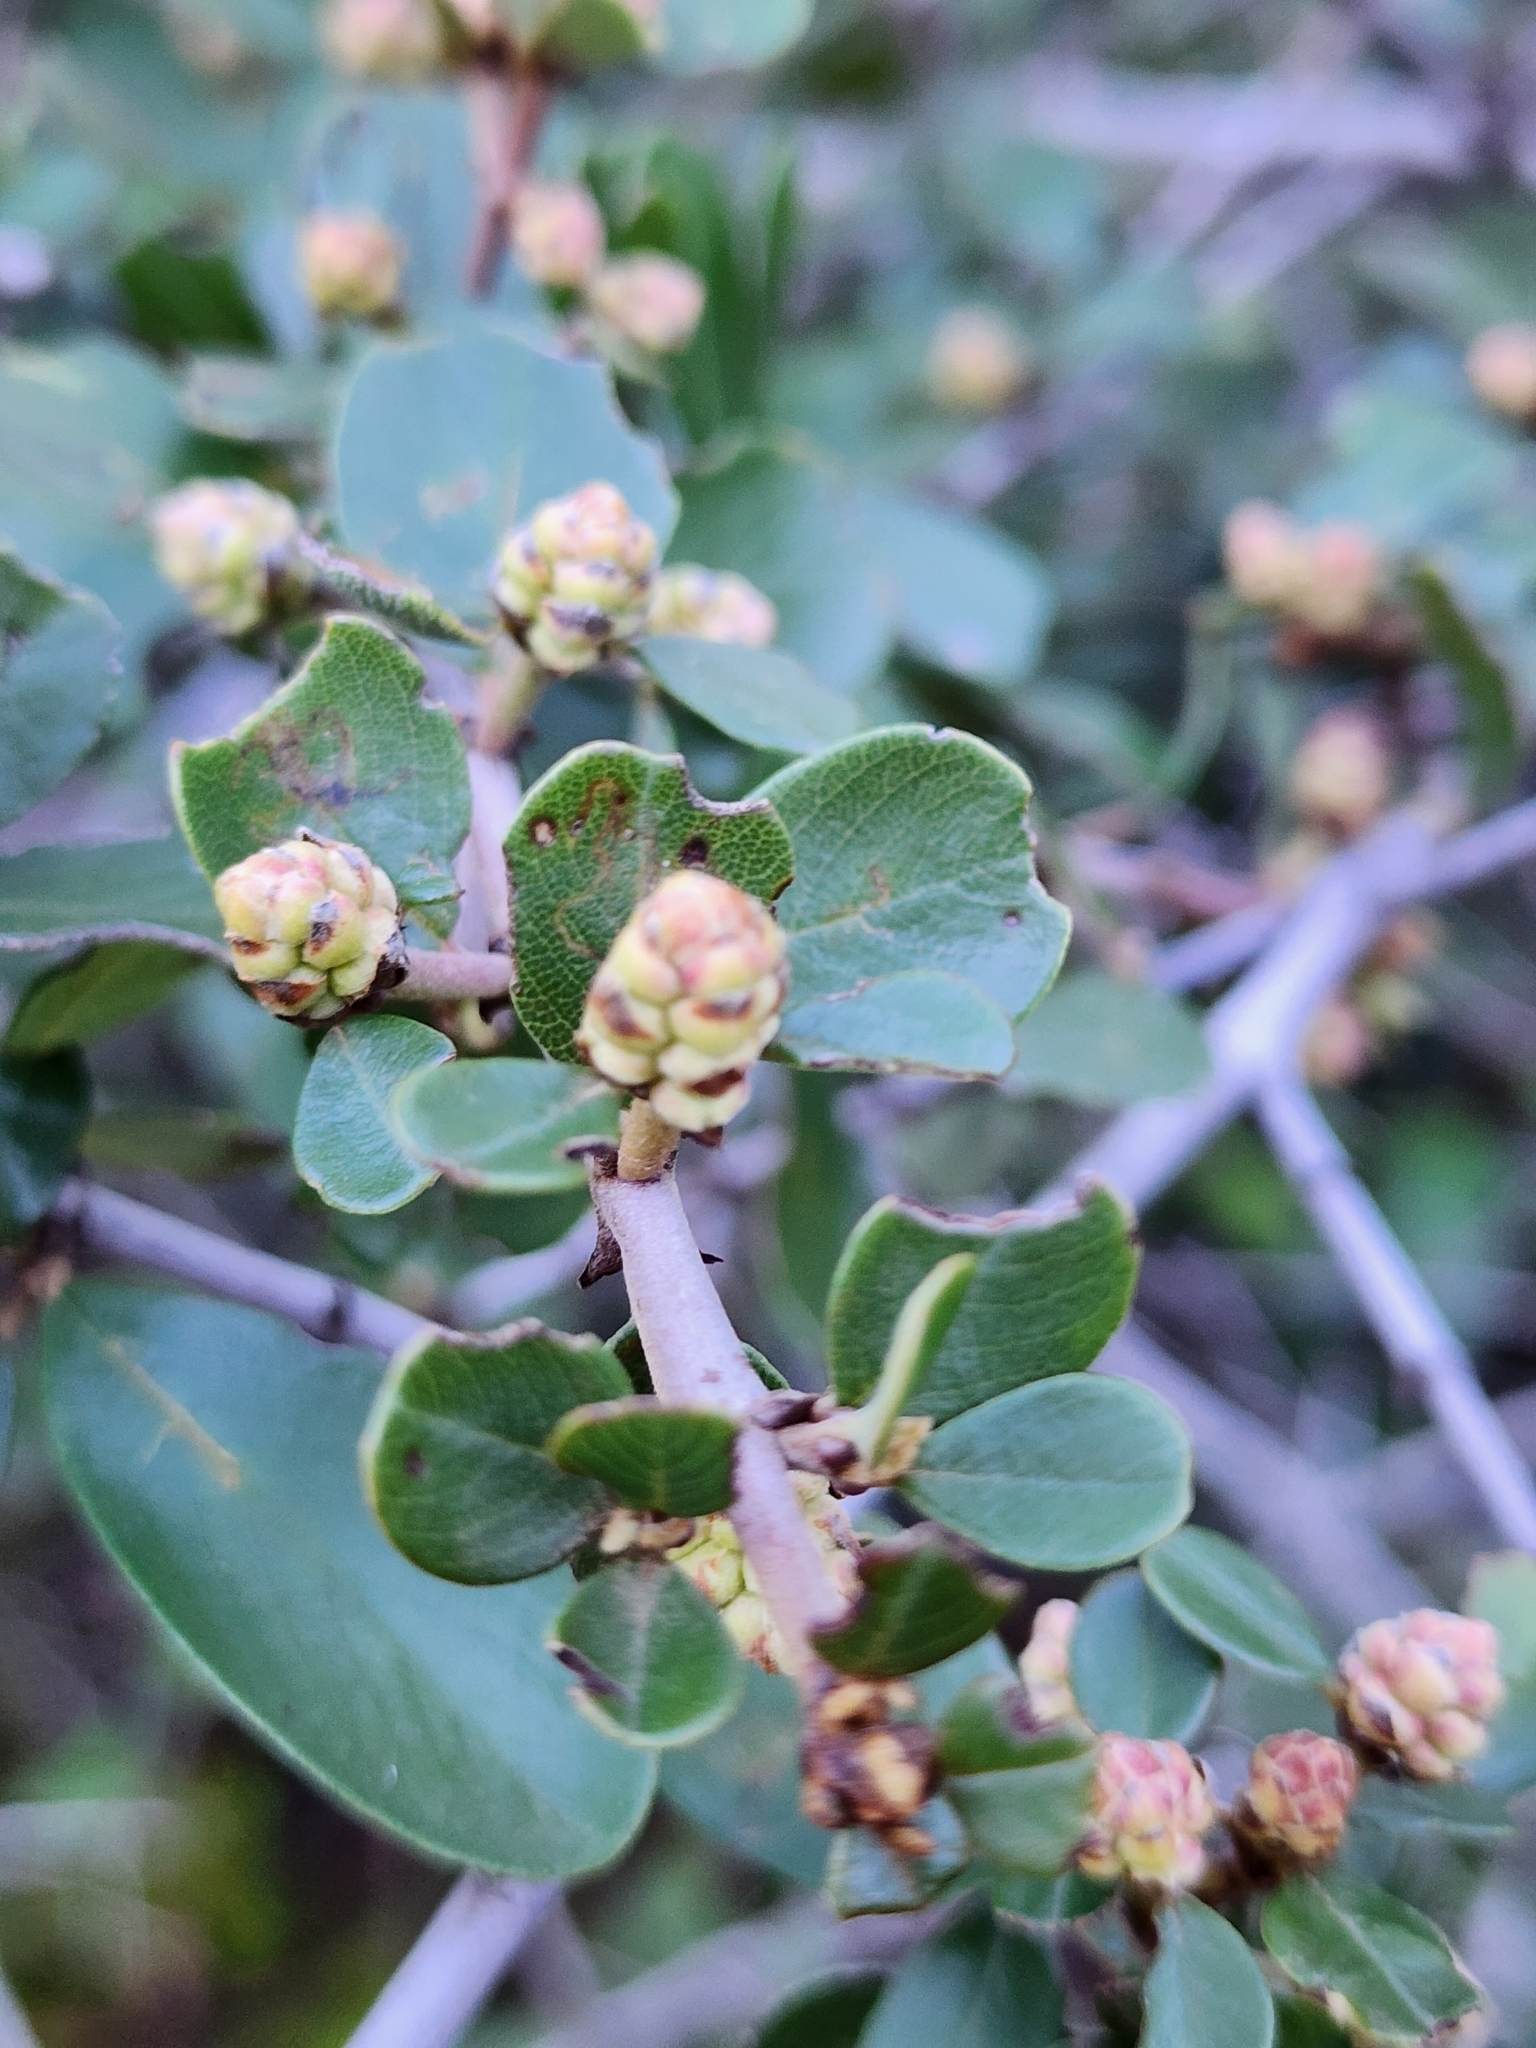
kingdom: Plantae
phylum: Tracheophyta
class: Magnoliopsida
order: Rosales
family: Rhamnaceae
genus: Ceanothus
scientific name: Ceanothus cuneatus
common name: Cuneate ceanothus
